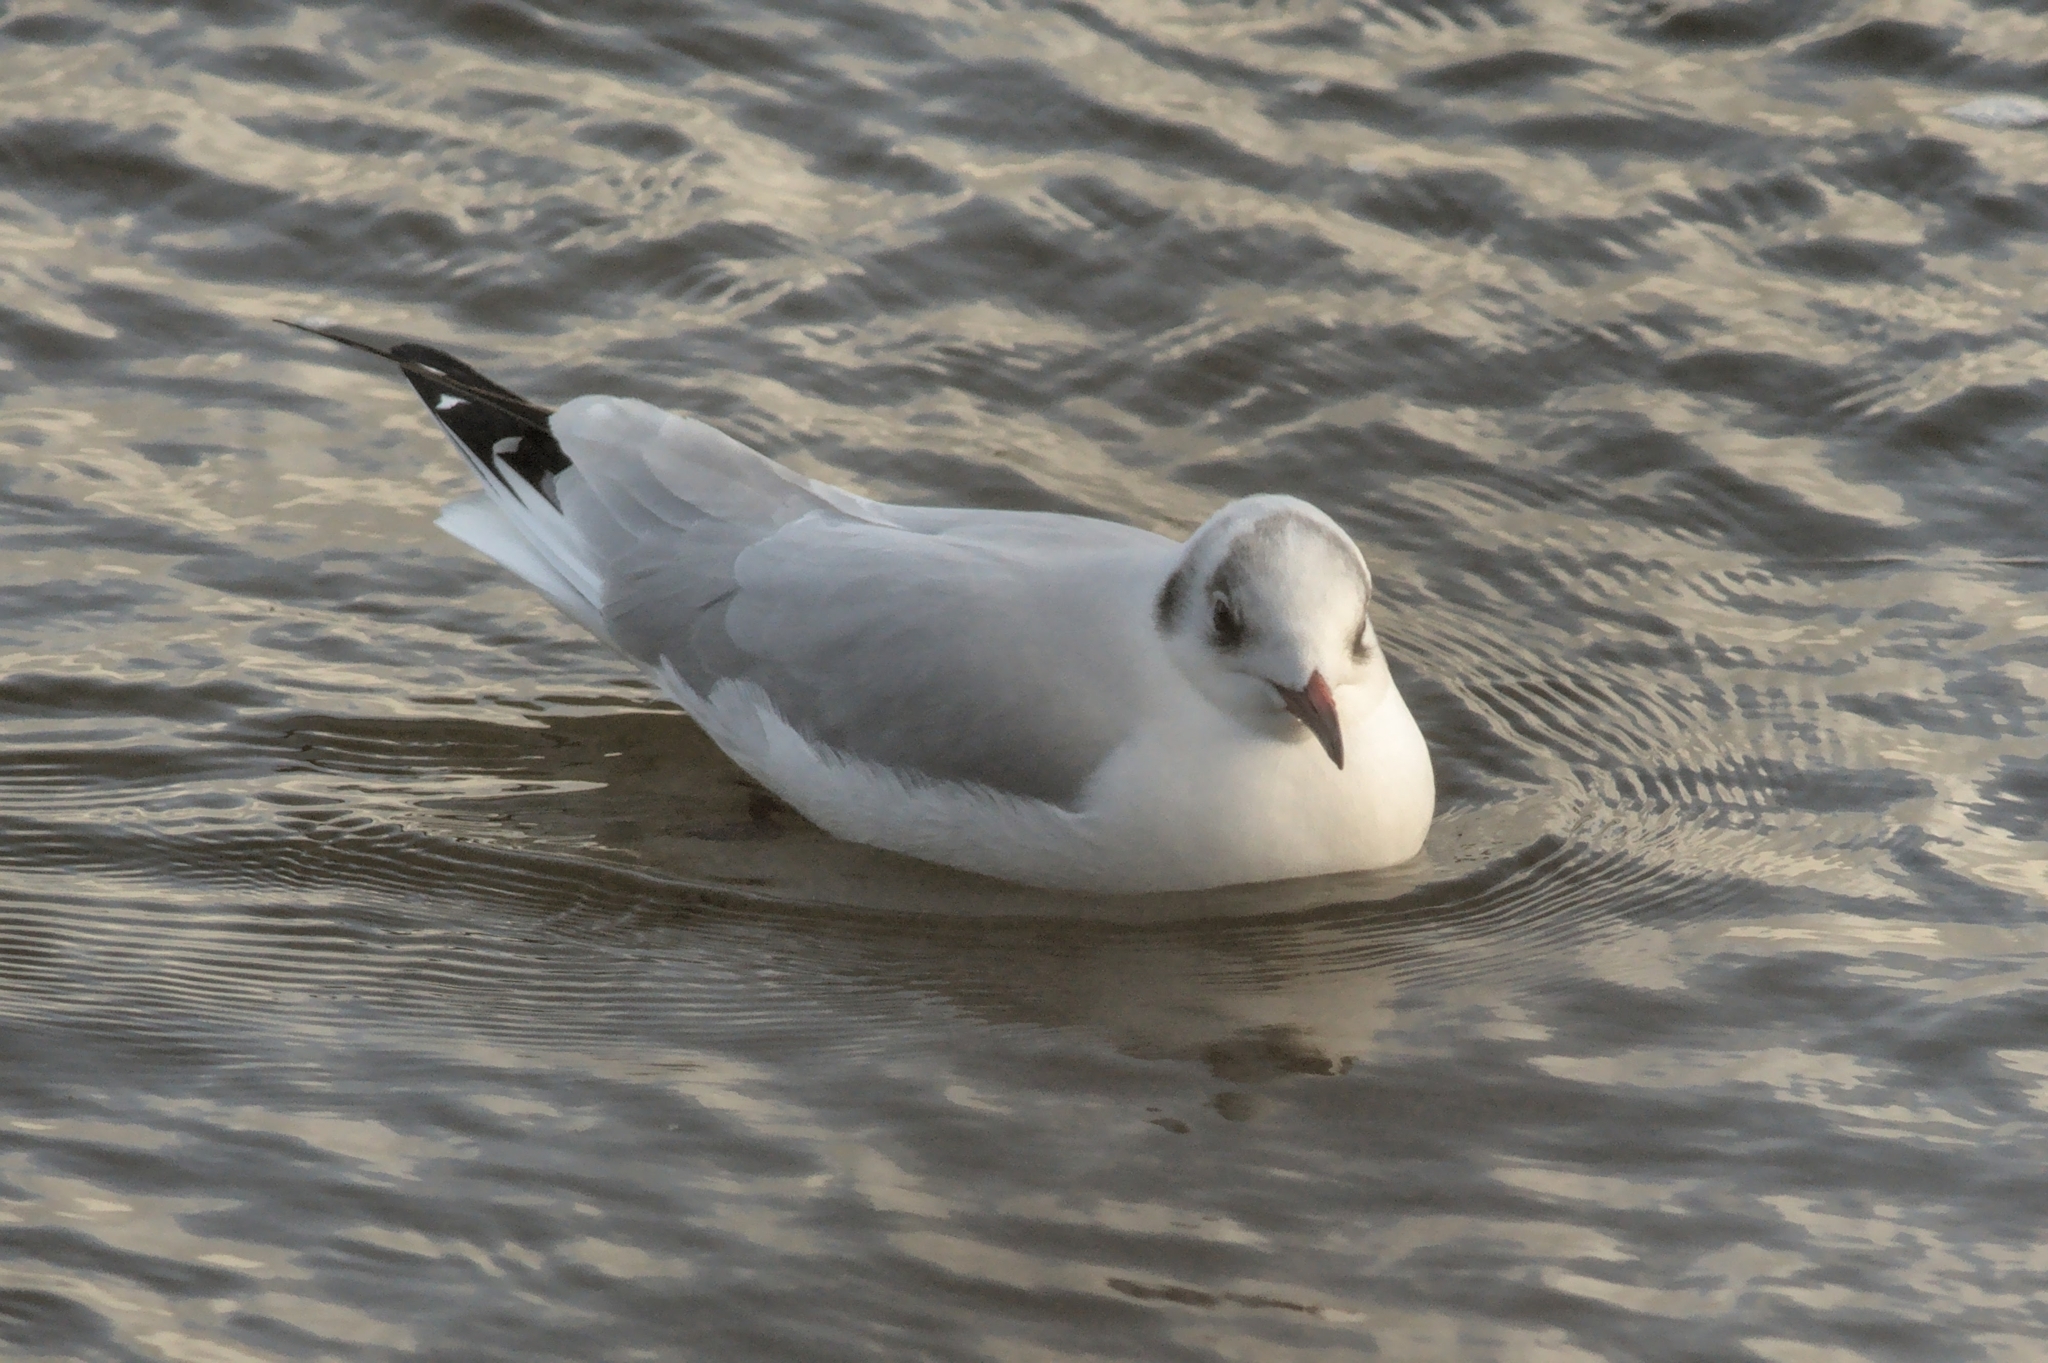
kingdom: Animalia
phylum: Chordata
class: Aves
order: Charadriiformes
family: Laridae
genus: Chroicocephalus
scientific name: Chroicocephalus ridibundus
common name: Black-headed gull
